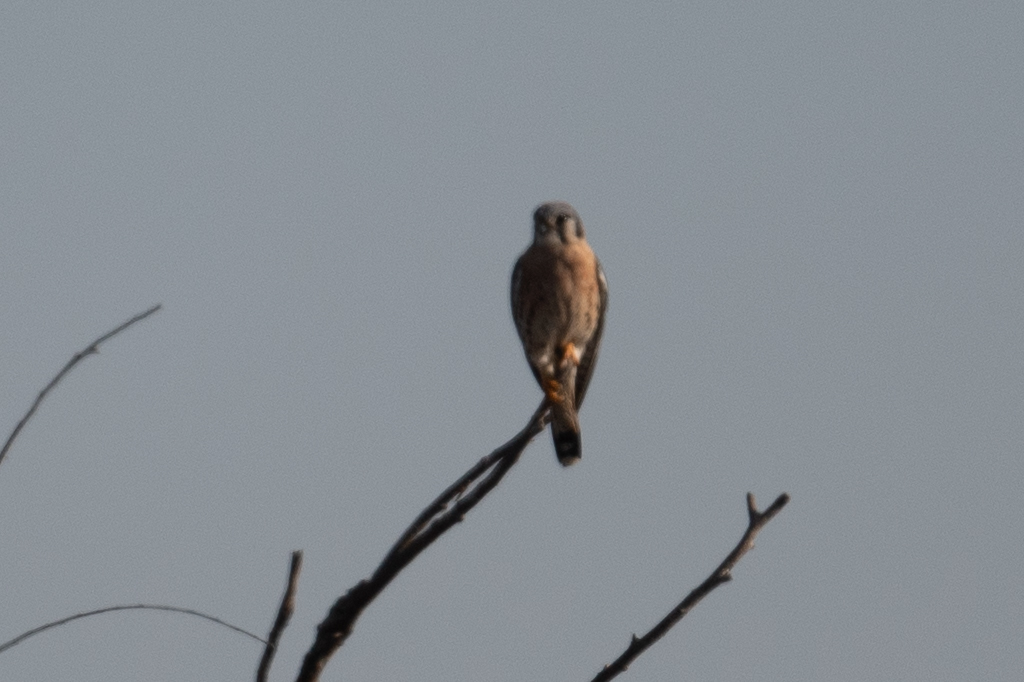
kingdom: Animalia
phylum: Chordata
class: Aves
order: Falconiformes
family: Falconidae
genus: Falco
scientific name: Falco sparverius
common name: American kestrel
